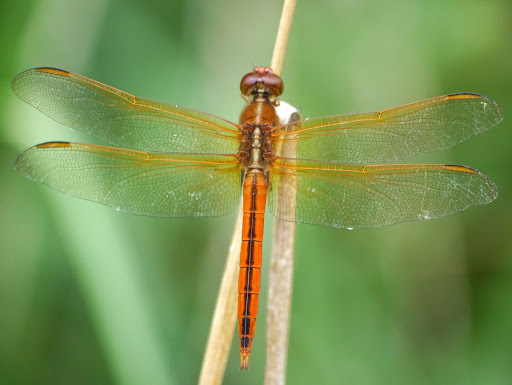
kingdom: Animalia
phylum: Arthropoda
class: Insecta
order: Odonata
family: Libellulidae
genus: Libellula
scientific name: Libellula needhami
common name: Needham's skimmer
